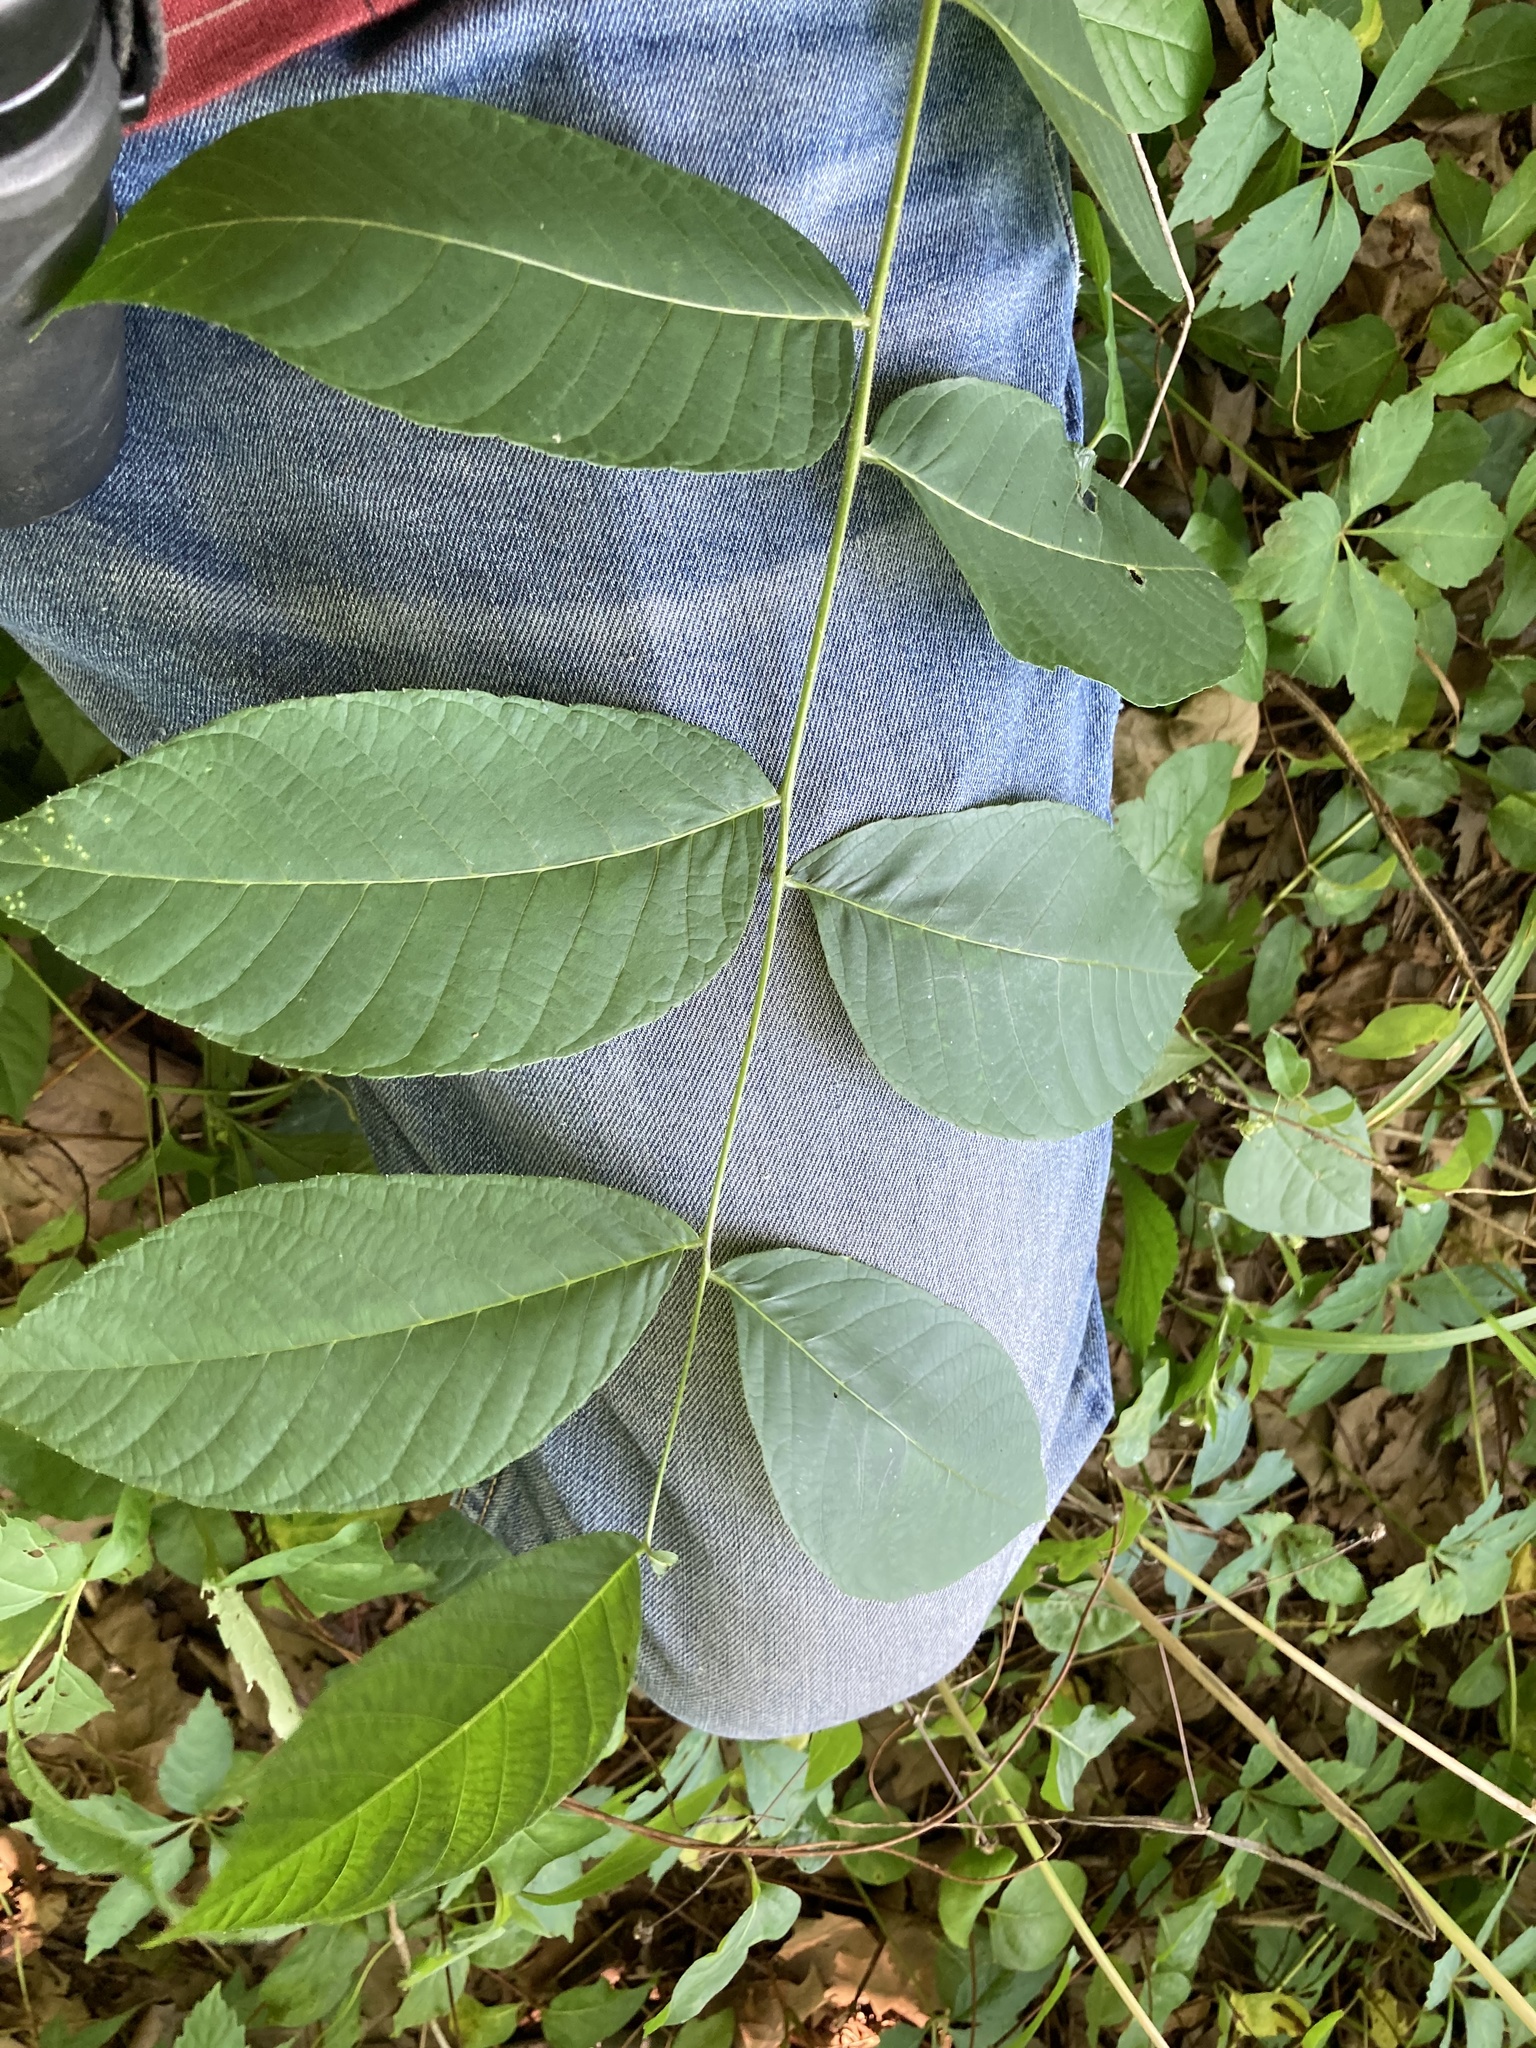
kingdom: Plantae
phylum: Tracheophyta
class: Magnoliopsida
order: Fagales
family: Juglandaceae
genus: Juglans
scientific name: Juglans nigra
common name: Black walnut
